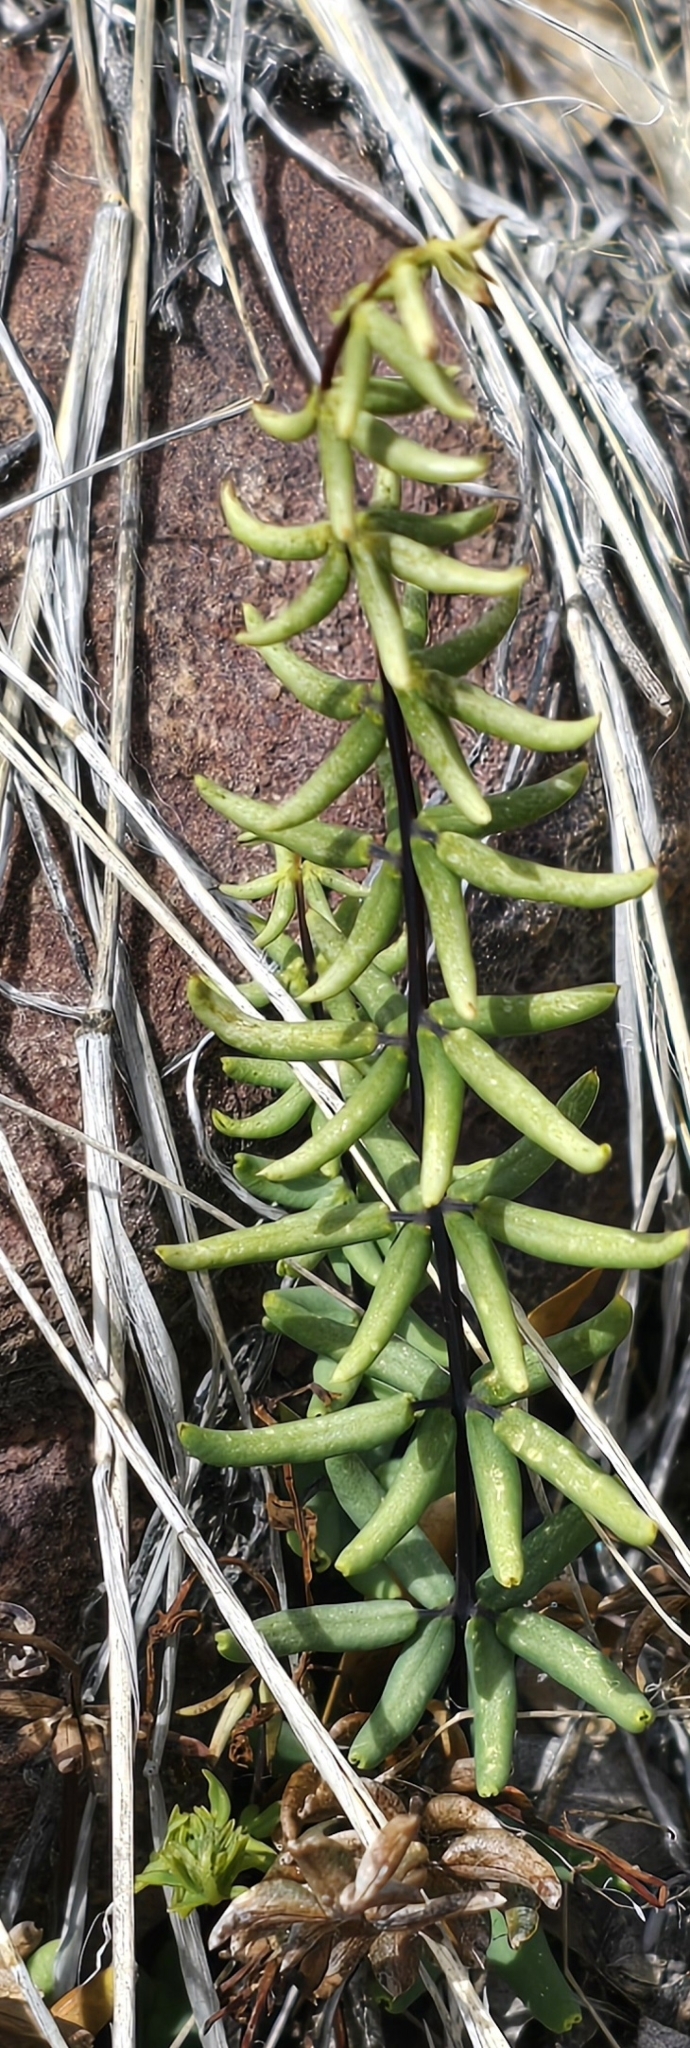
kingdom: Plantae
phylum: Tracheophyta
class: Polypodiopsida
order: Polypodiales
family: Pteridaceae
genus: Pellaea
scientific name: Pellaea wrightiana
